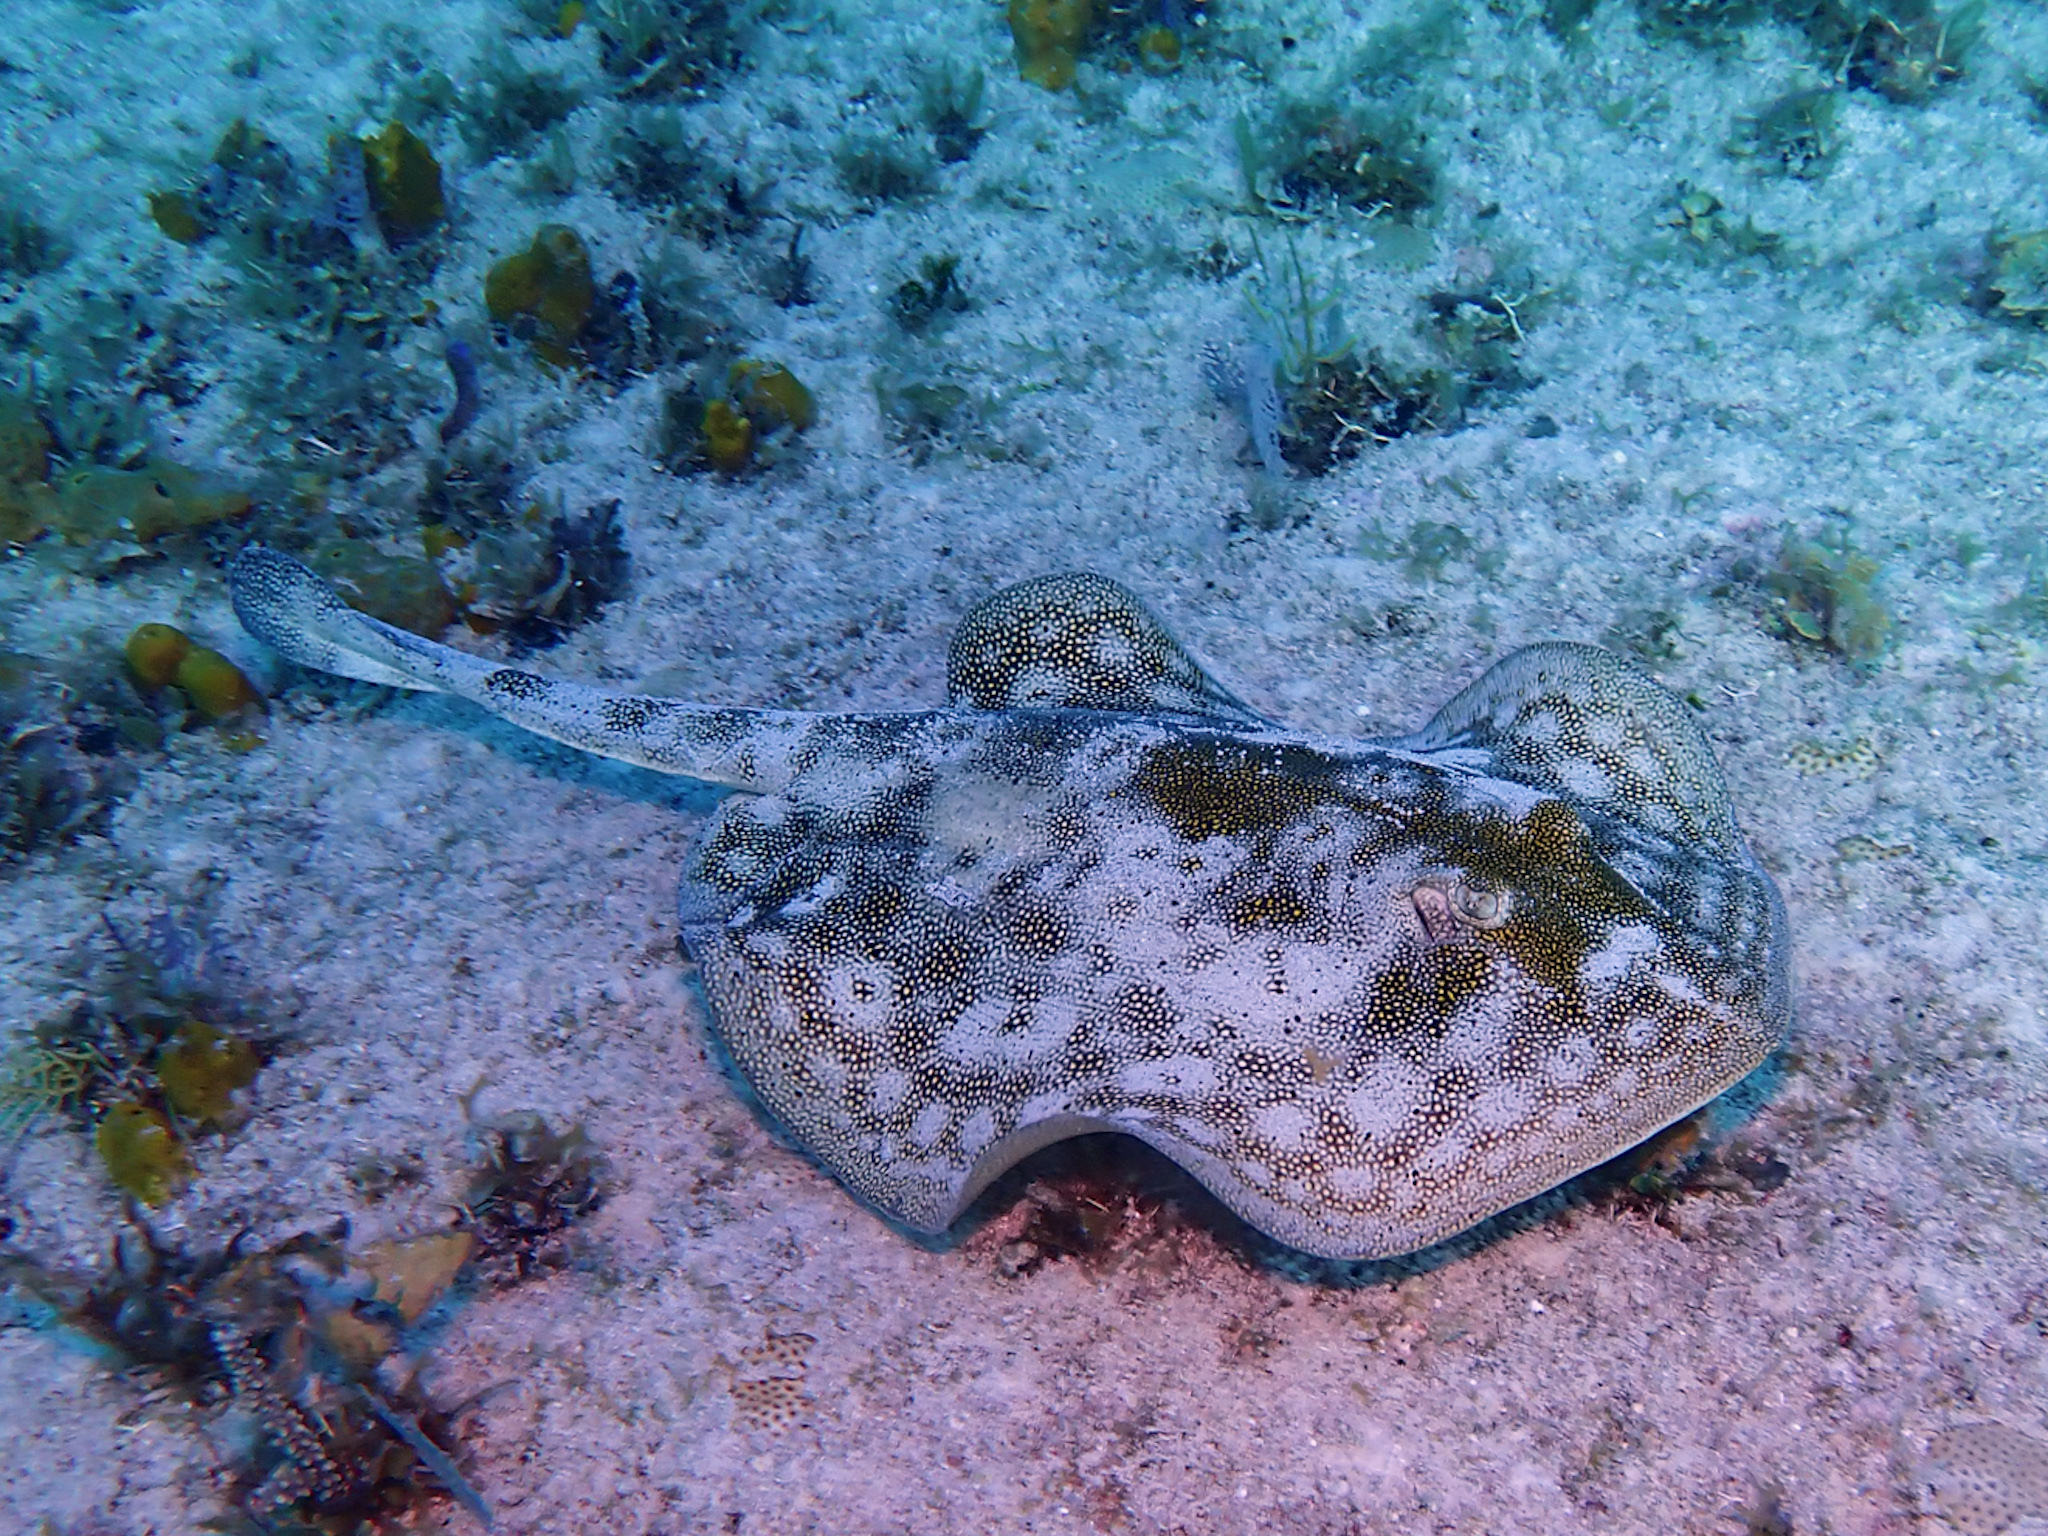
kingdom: Animalia
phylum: Chordata
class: Elasmobranchii
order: Myliobatiformes
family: Urotrygonidae
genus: Urobatis
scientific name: Urobatis jamaicensis
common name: Yellow stingray
